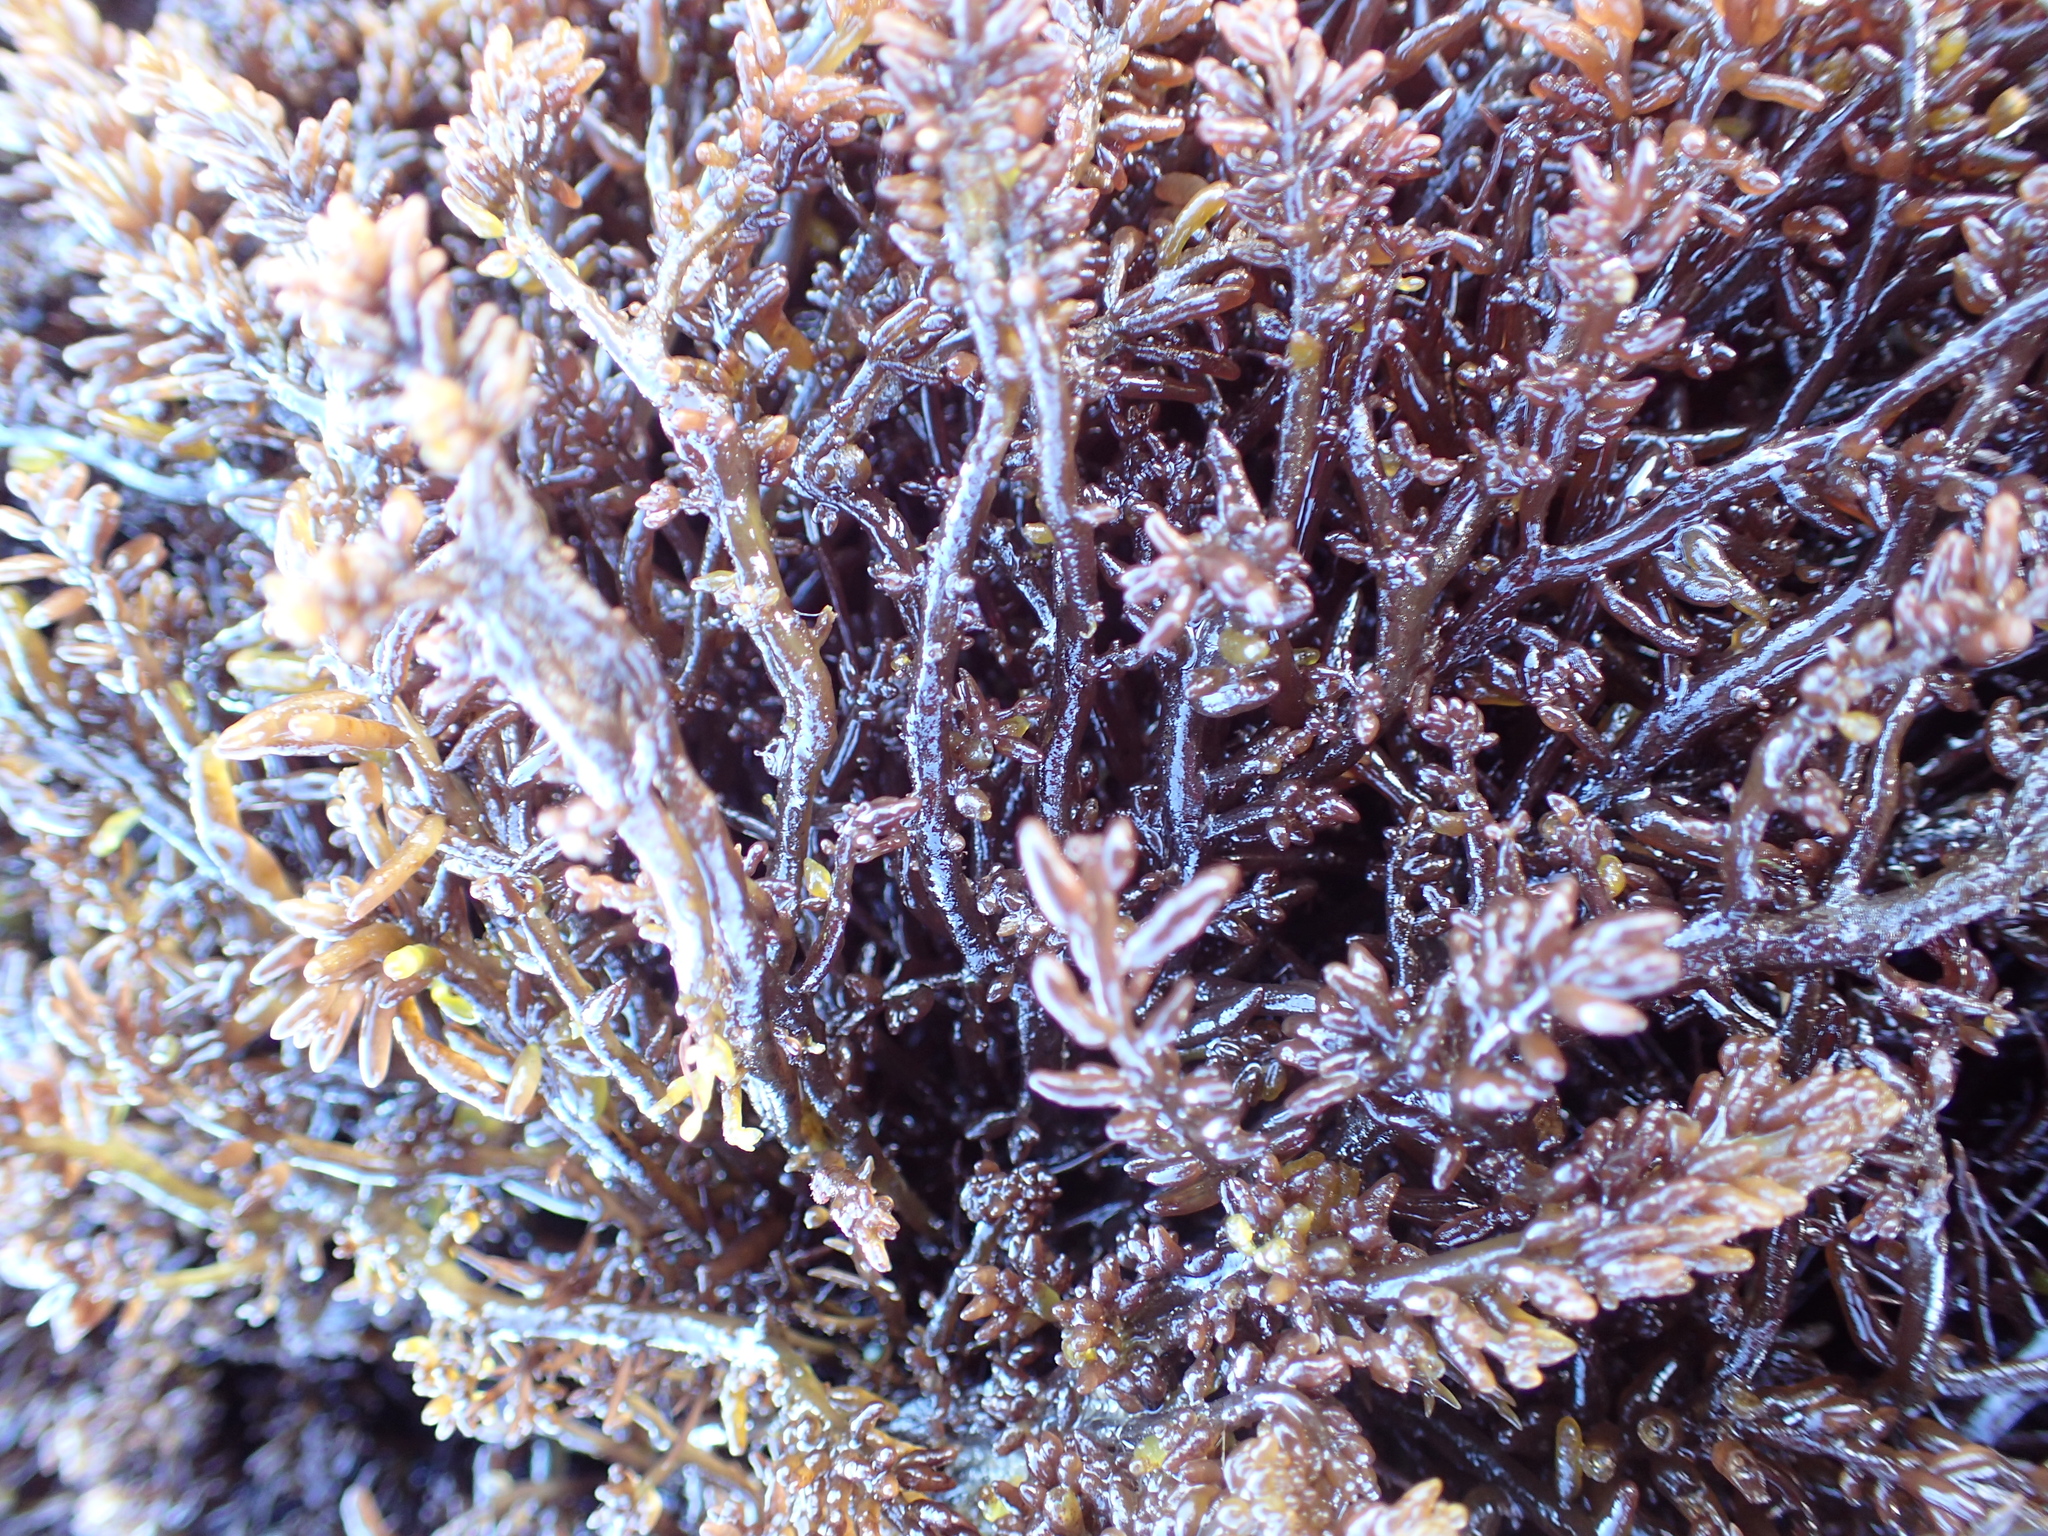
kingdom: Plantae
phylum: Rhodophyta
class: Florideophyceae
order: Rhodymeniales
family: Champiaceae
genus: Neogastroclonium
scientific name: Neogastroclonium subarticulatum
